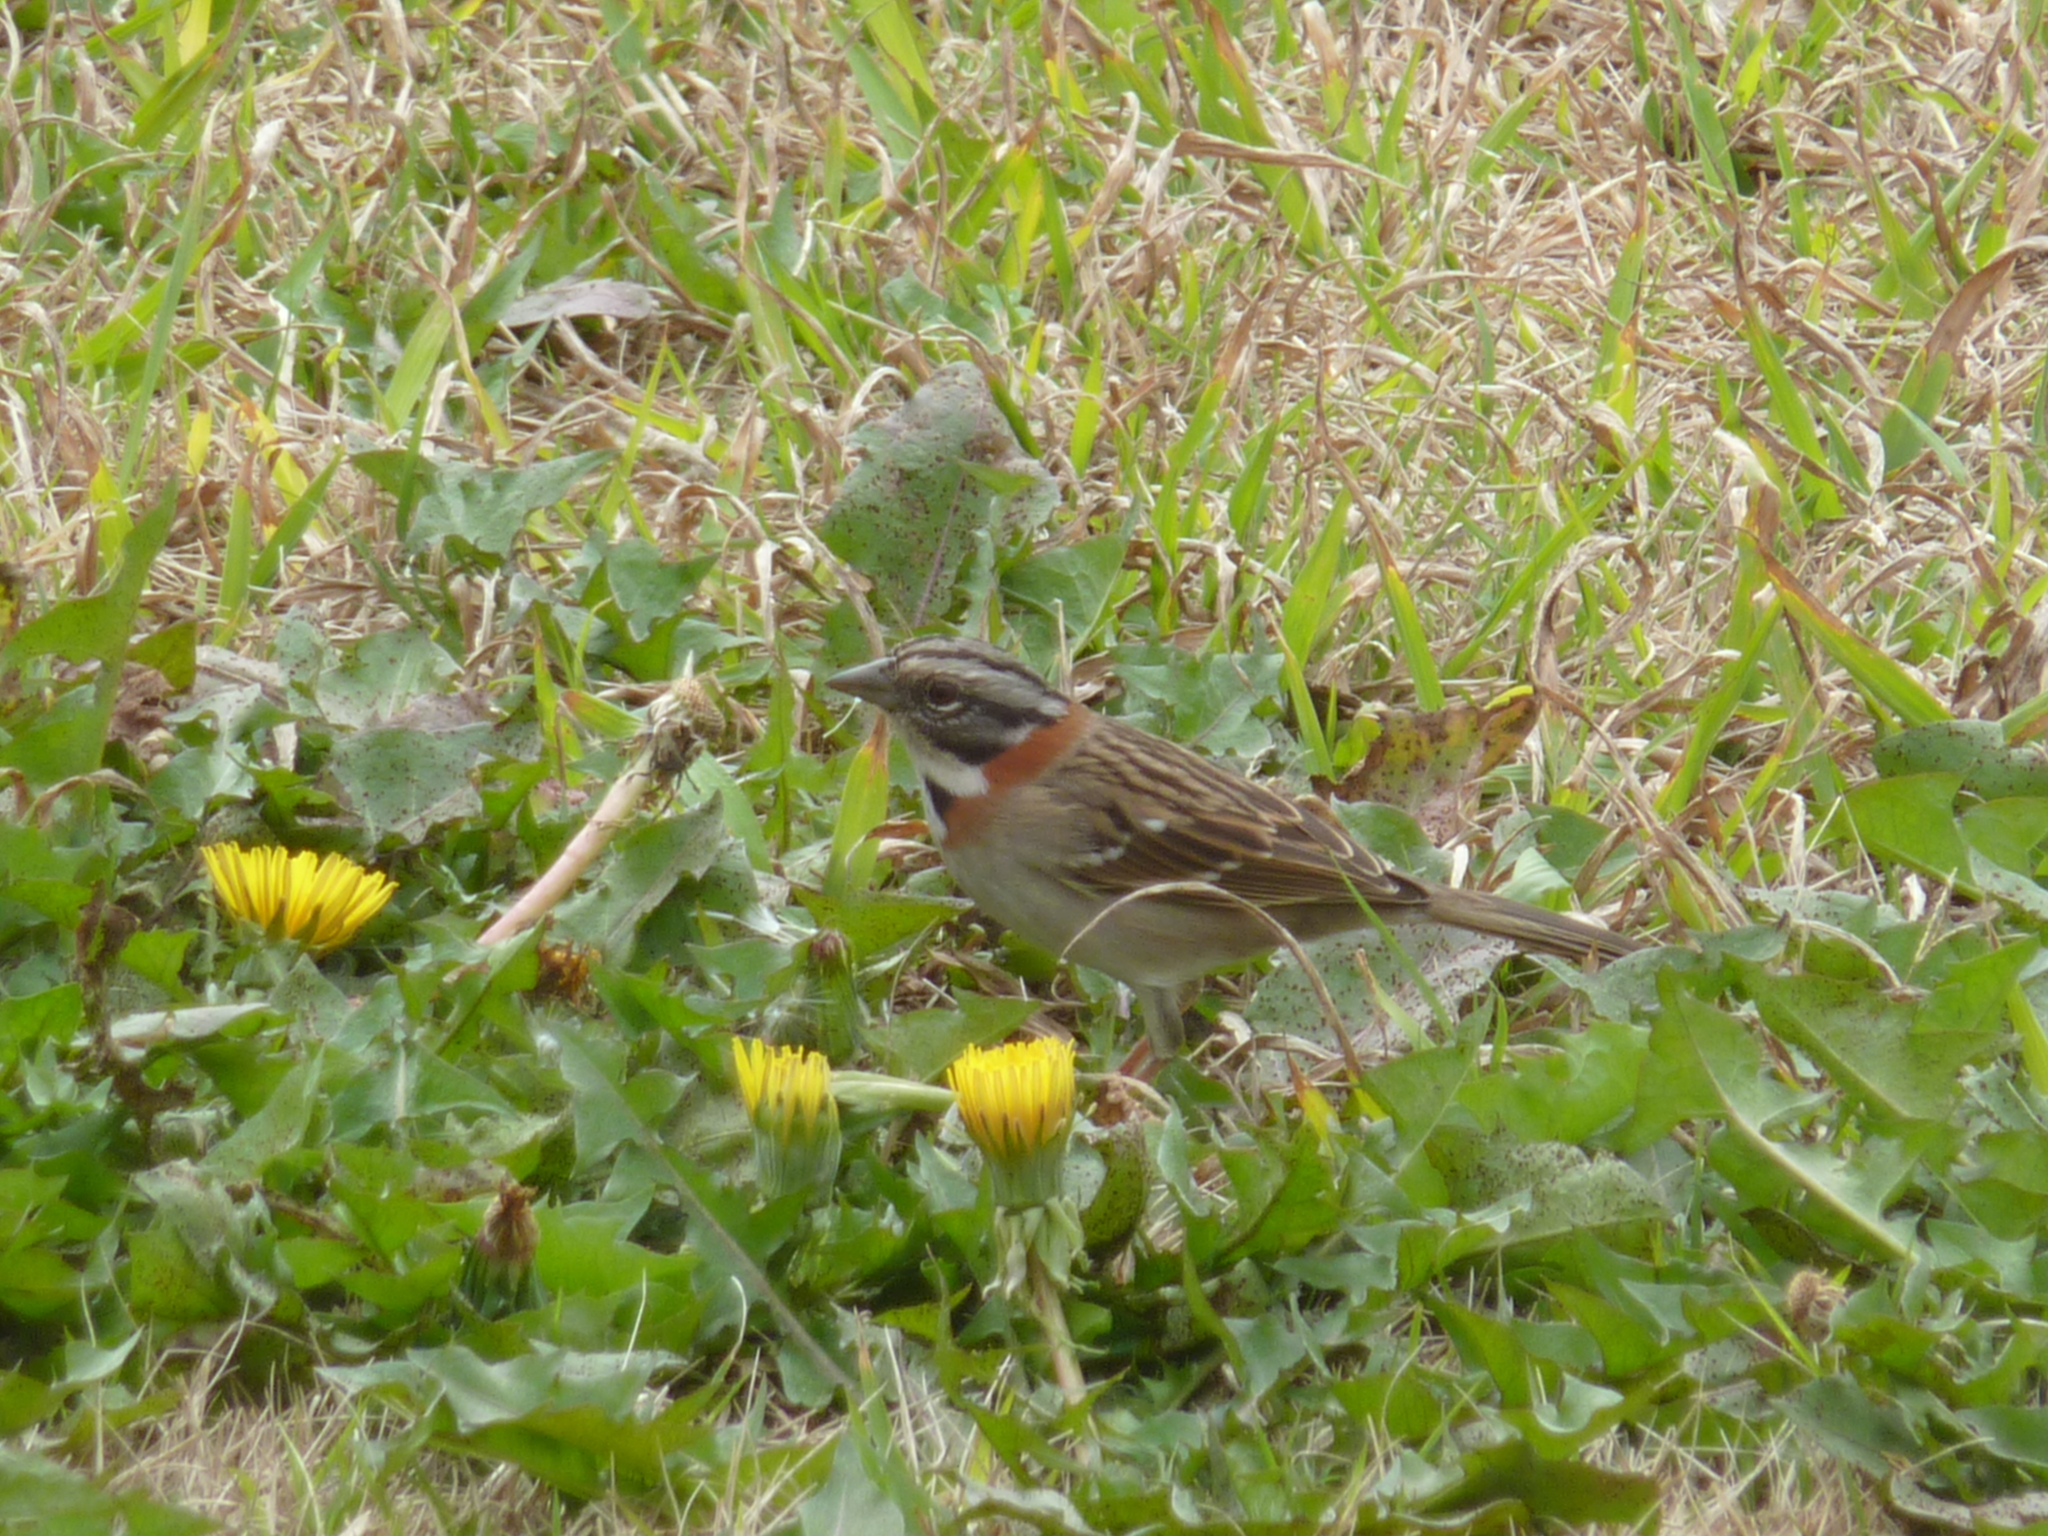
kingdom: Animalia
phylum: Chordata
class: Aves
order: Passeriformes
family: Passerellidae
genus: Zonotrichia
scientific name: Zonotrichia capensis
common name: Rufous-collared sparrow
